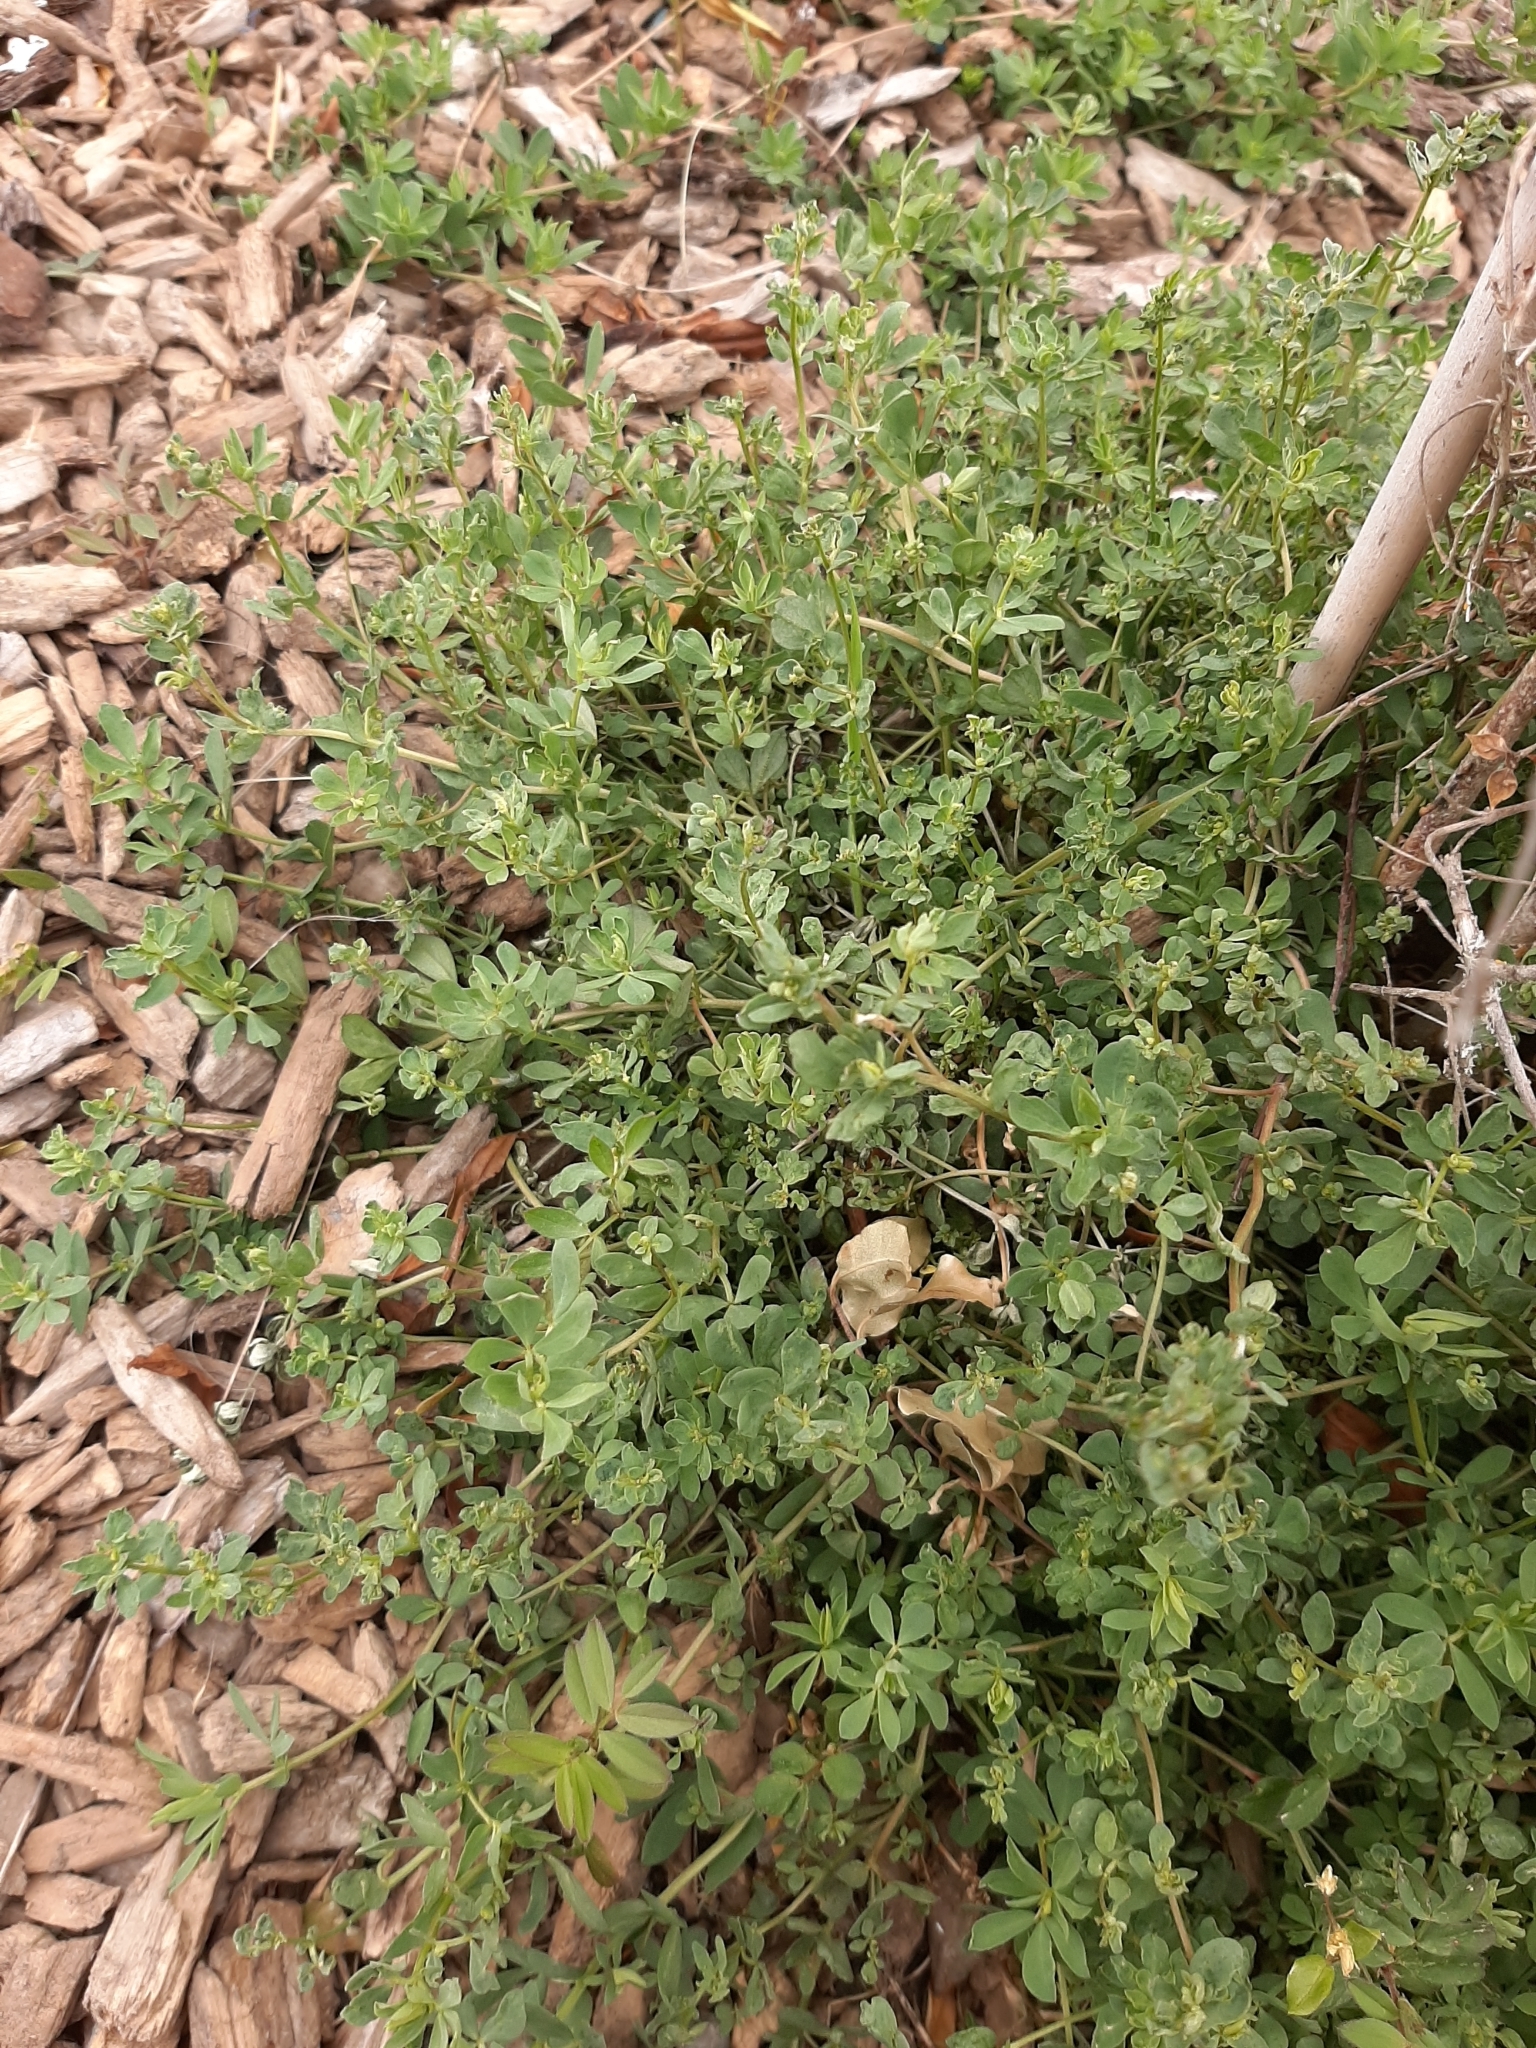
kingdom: Plantae
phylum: Tracheophyta
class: Magnoliopsida
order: Fabales
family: Fabaceae
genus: Lotus
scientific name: Lotus pedunculatus
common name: Greater birdsfoot-trefoil
